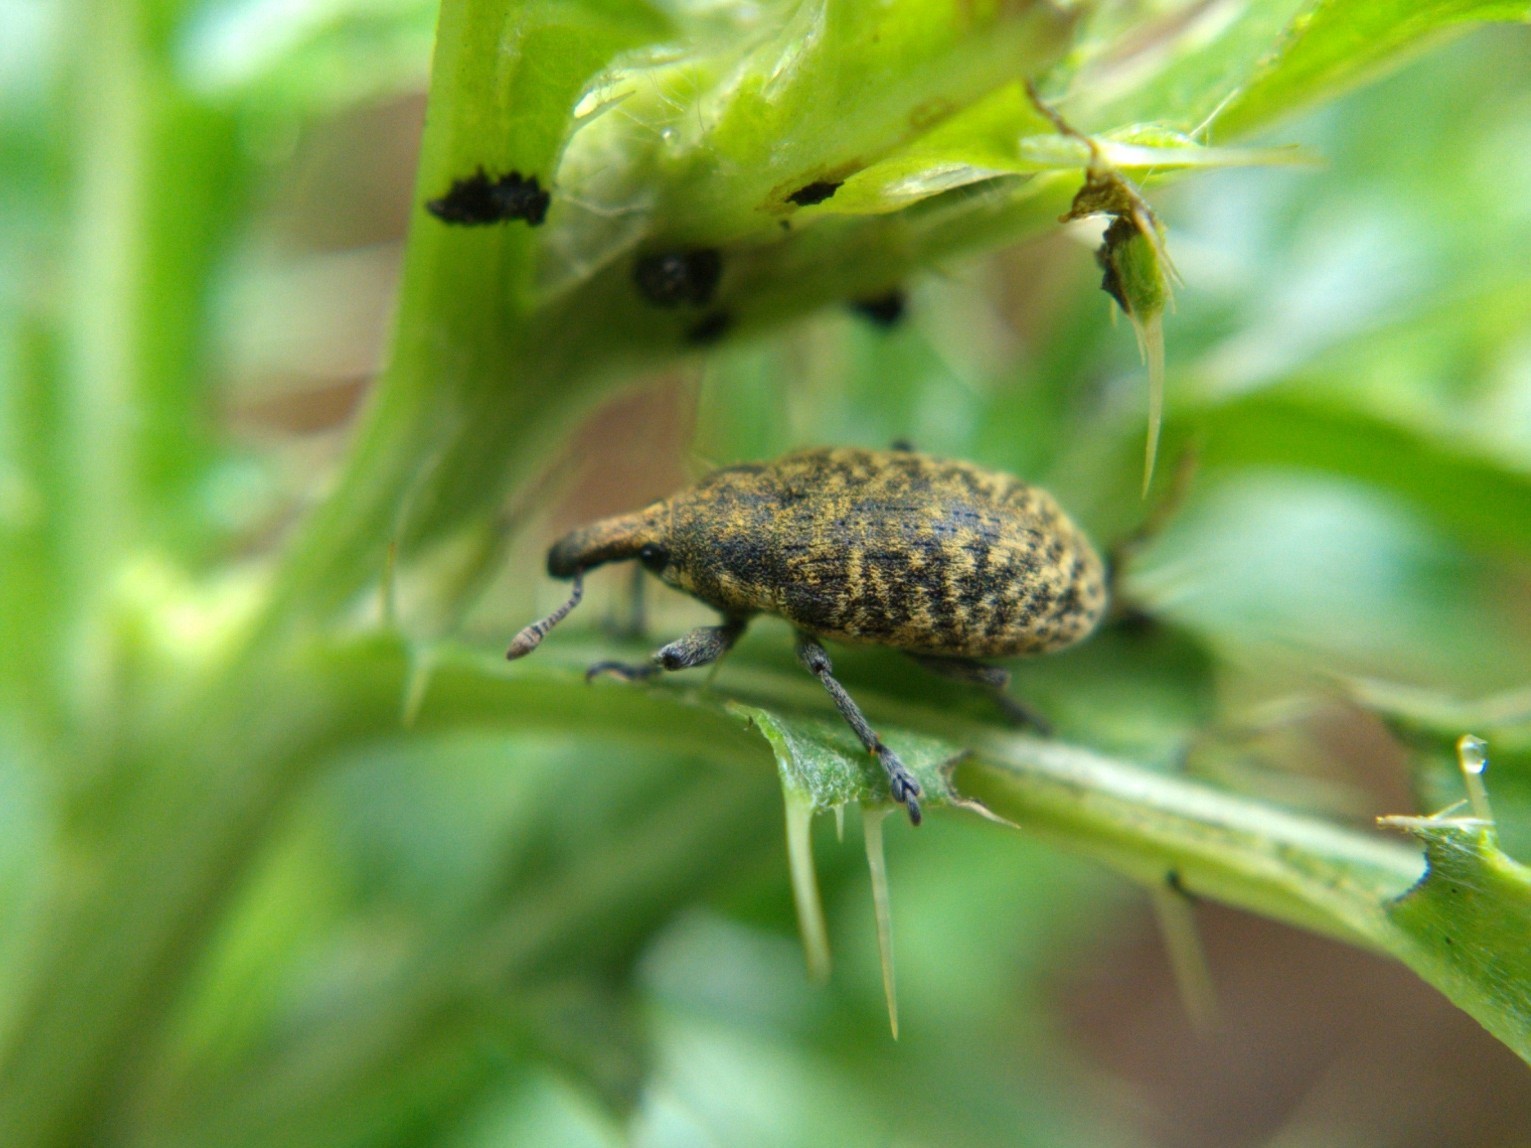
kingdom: Animalia
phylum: Arthropoda
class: Insecta
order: Coleoptera
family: Curculionidae
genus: Larinus
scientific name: Larinus carlinae
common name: Weevil
